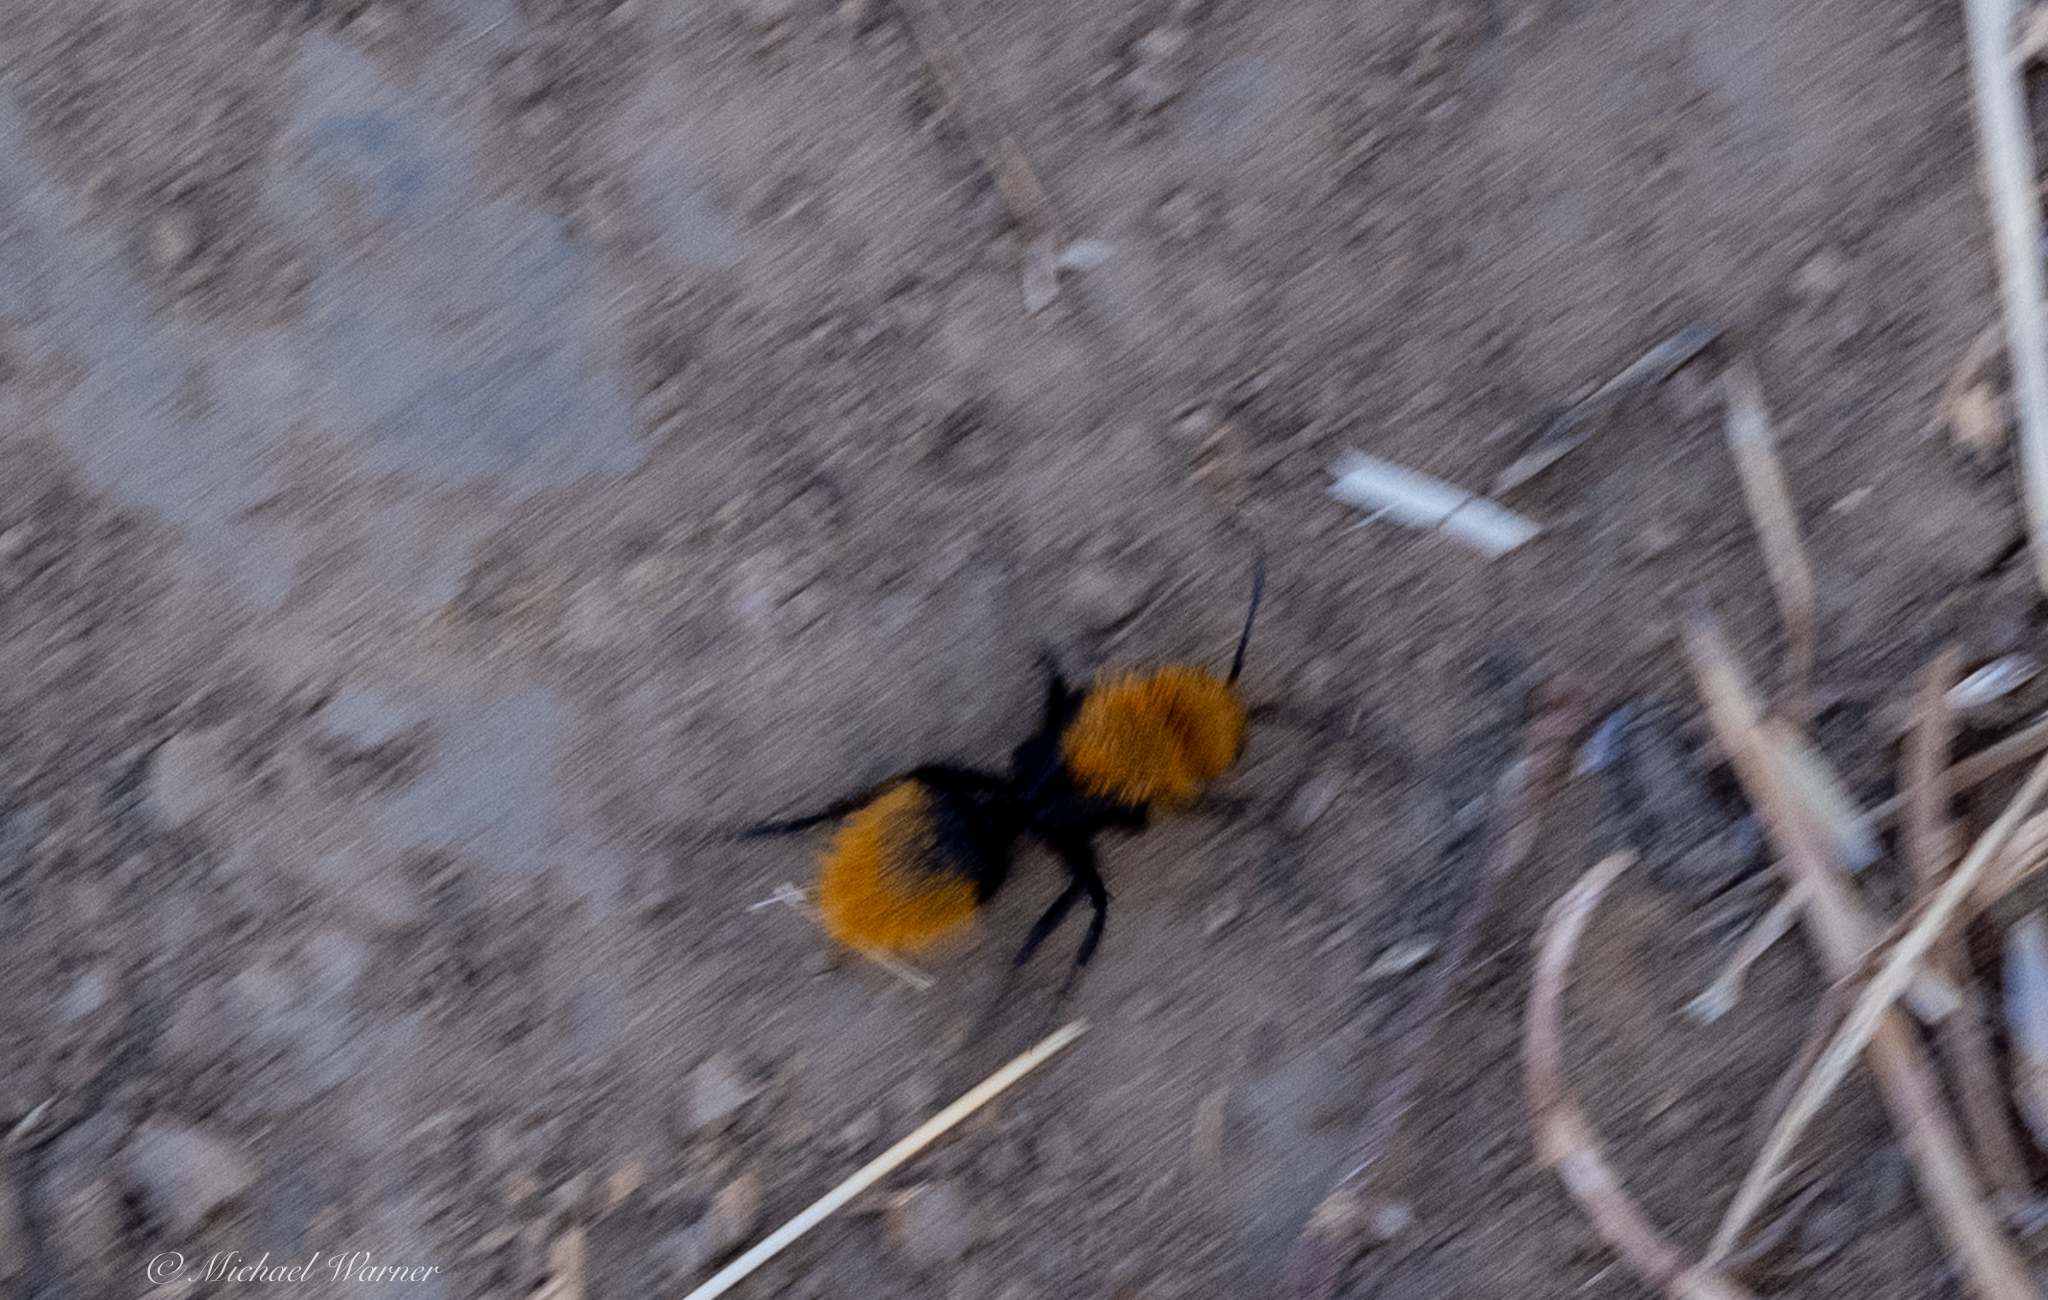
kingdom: Animalia
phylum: Arthropoda
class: Insecta
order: Hymenoptera
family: Mutillidae
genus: Dasymutilla
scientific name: Dasymutilla
